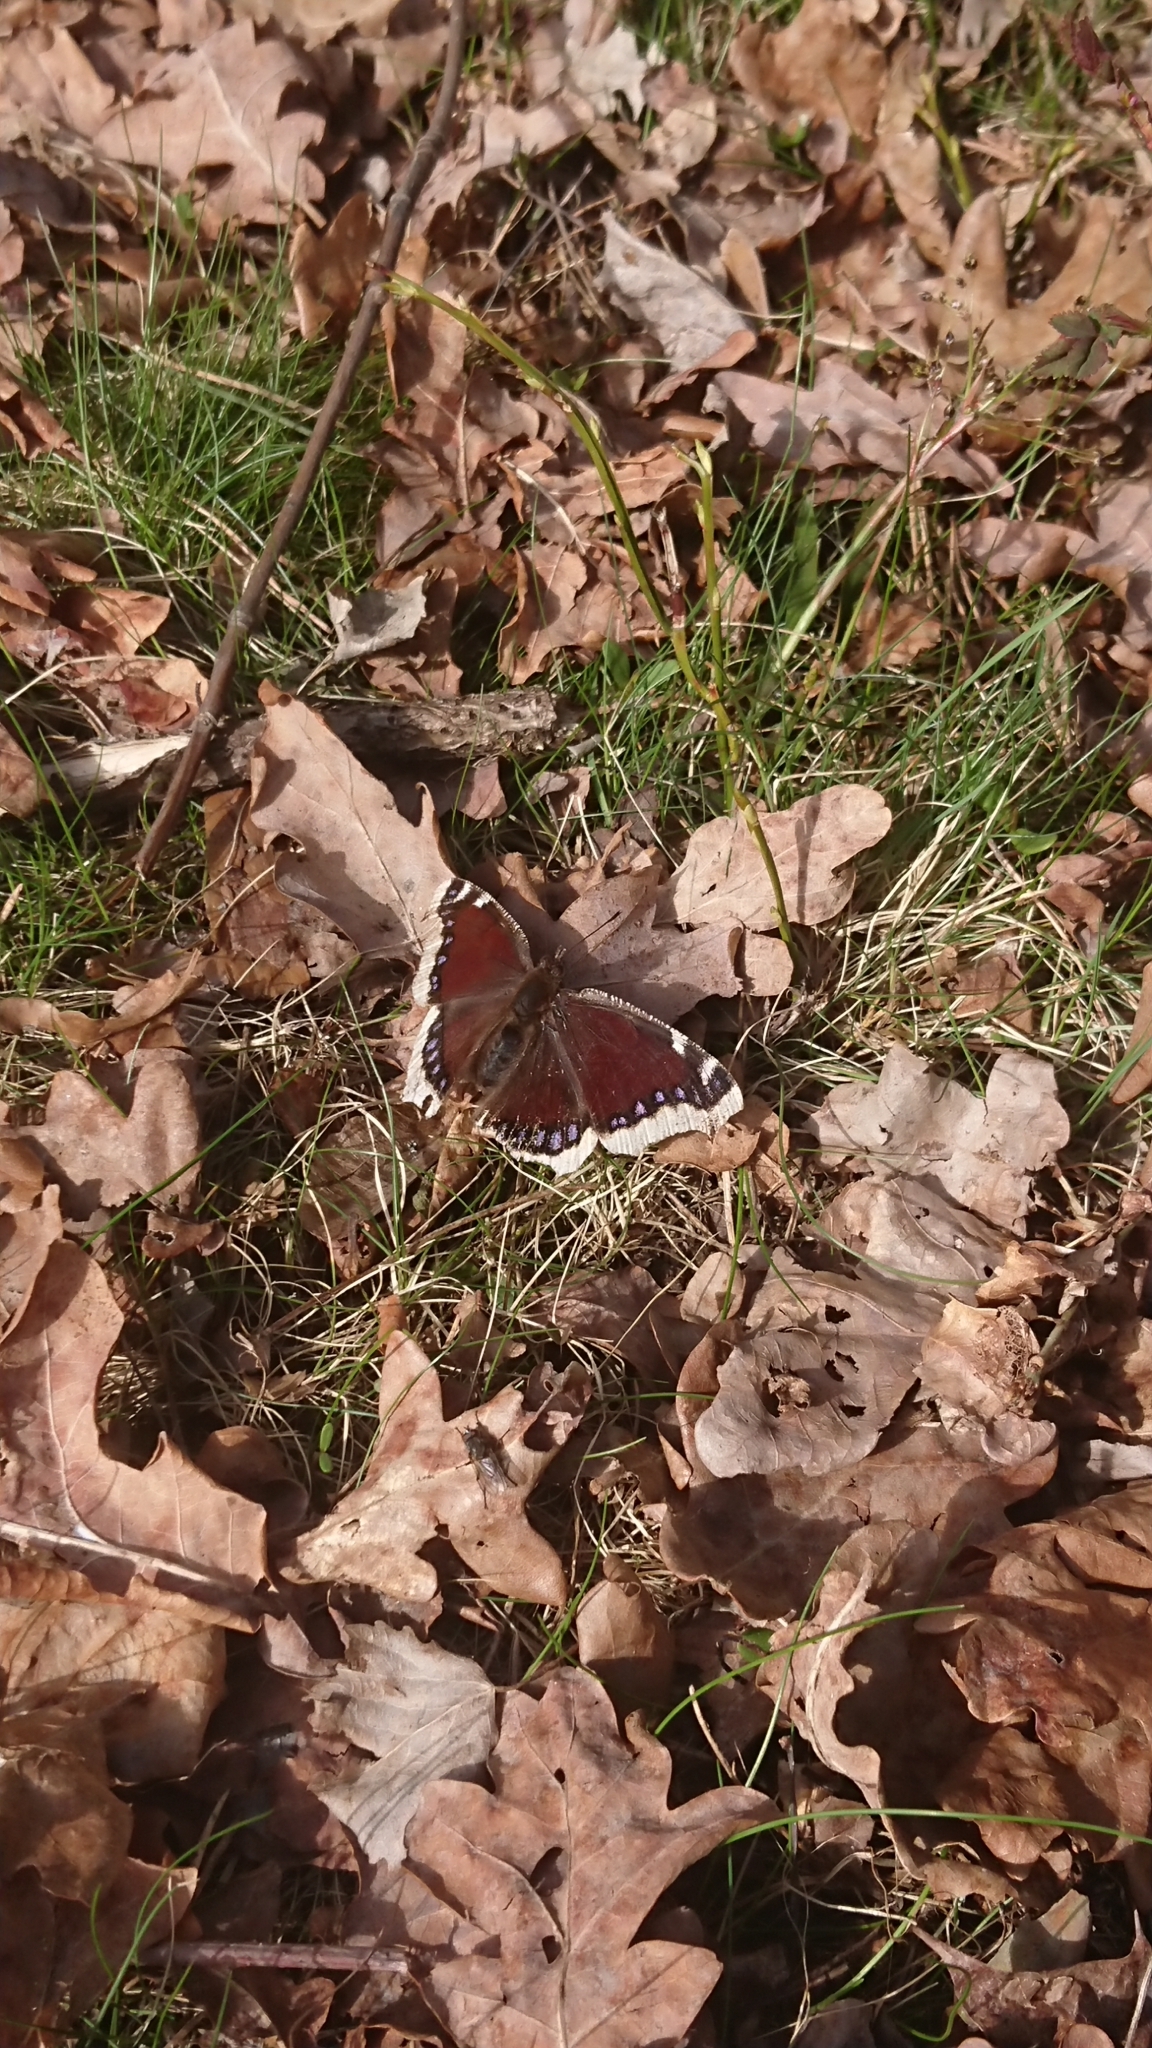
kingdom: Animalia
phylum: Arthropoda
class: Insecta
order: Lepidoptera
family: Nymphalidae
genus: Nymphalis
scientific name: Nymphalis antiopa
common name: Camberwell beauty
